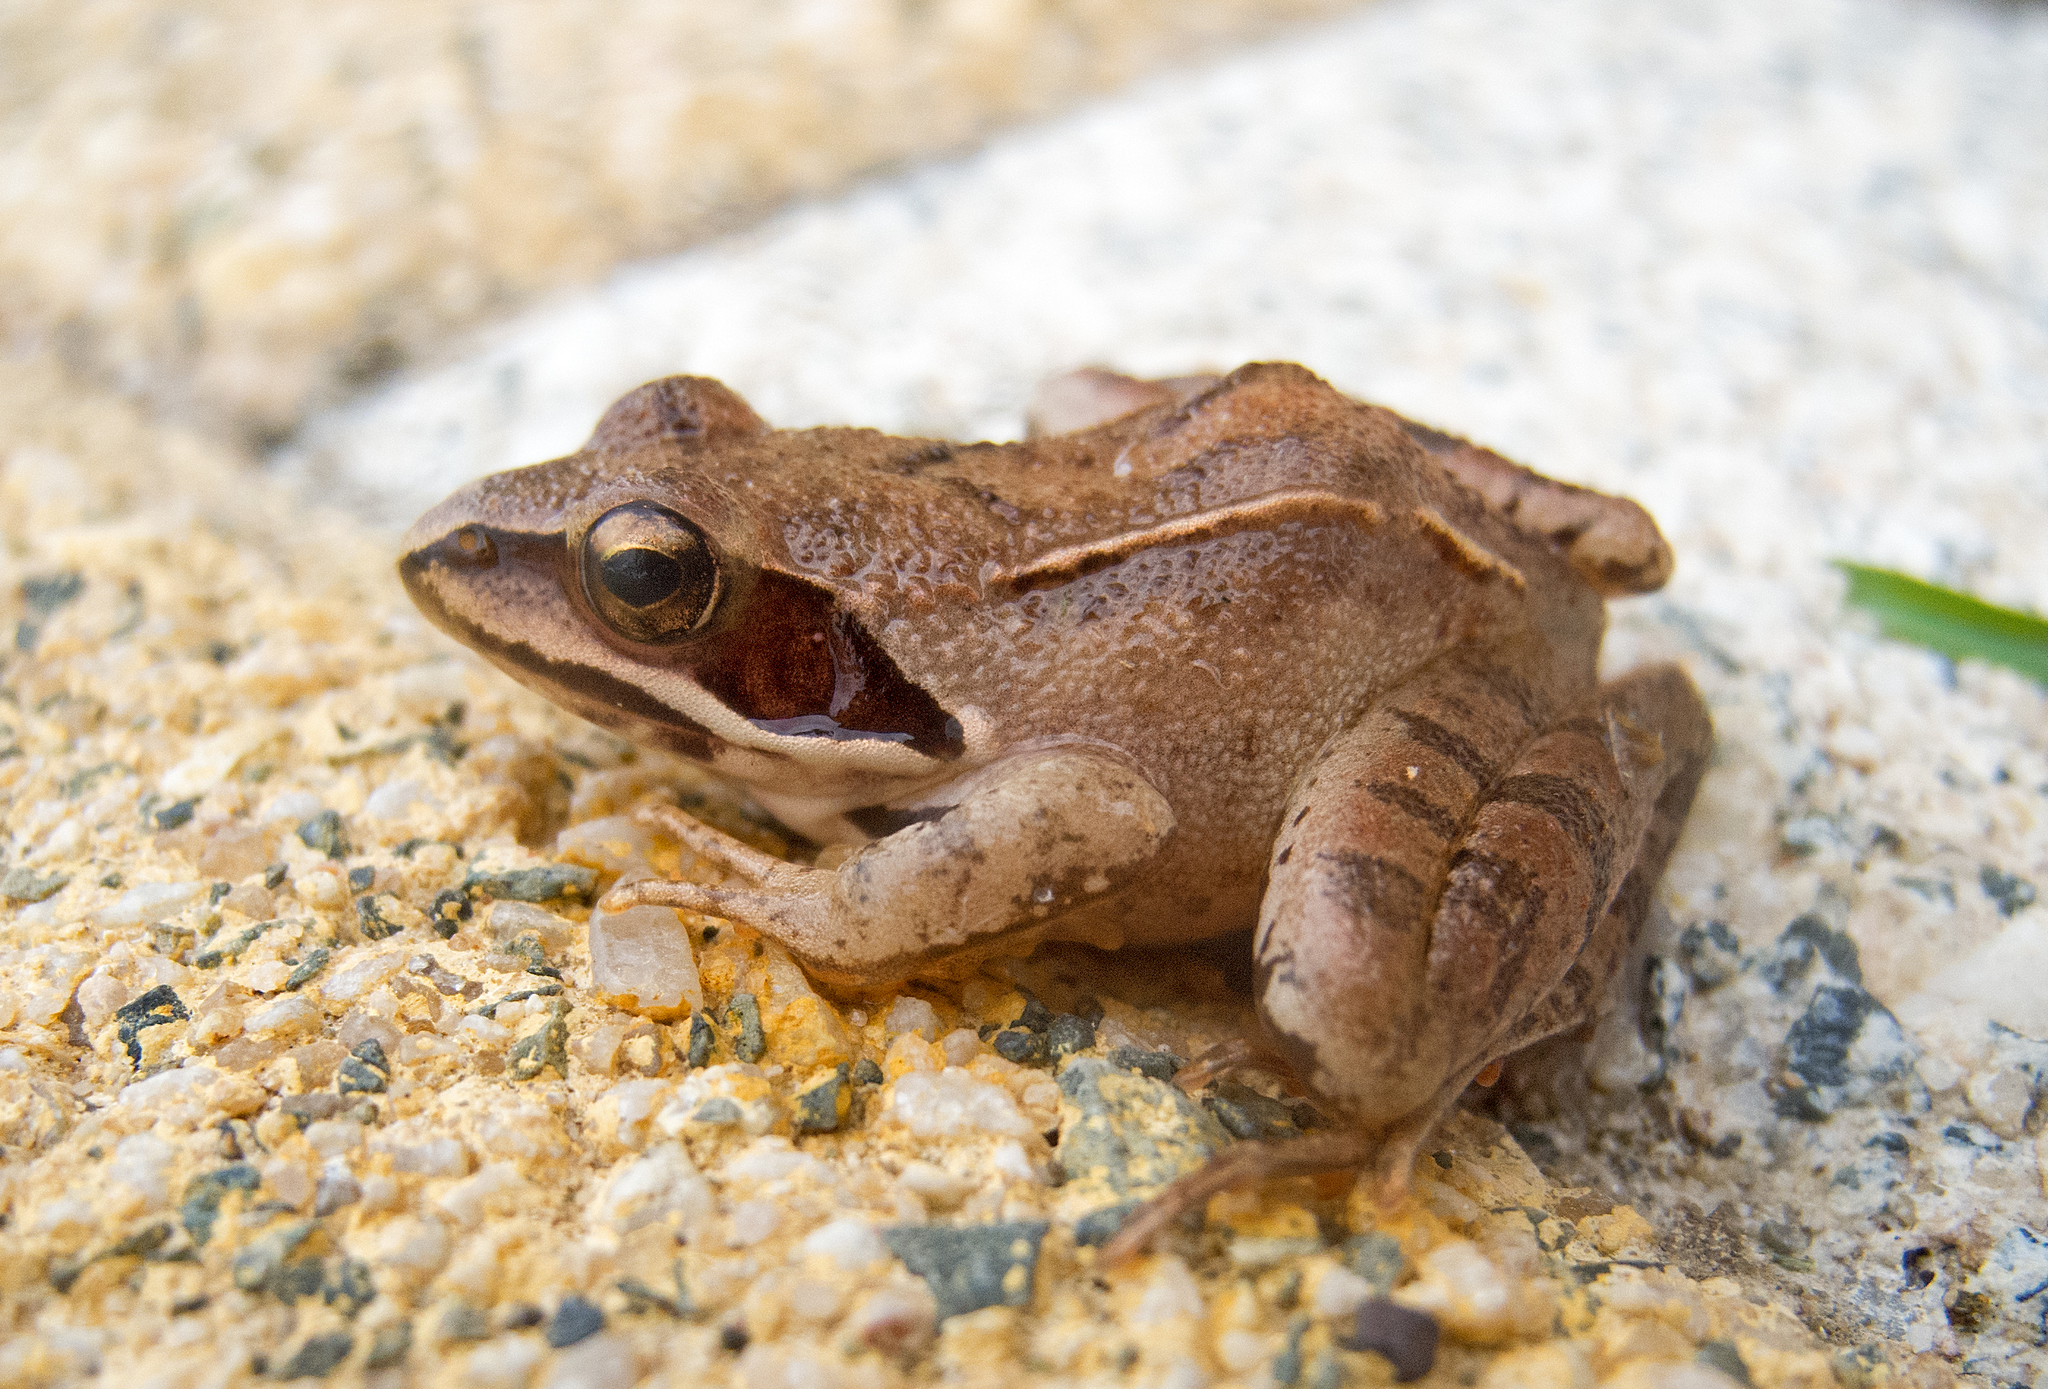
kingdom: Animalia
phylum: Chordata
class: Amphibia
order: Anura
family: Ranidae
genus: Rana
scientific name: Rana dalmatina
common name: Agile frog
